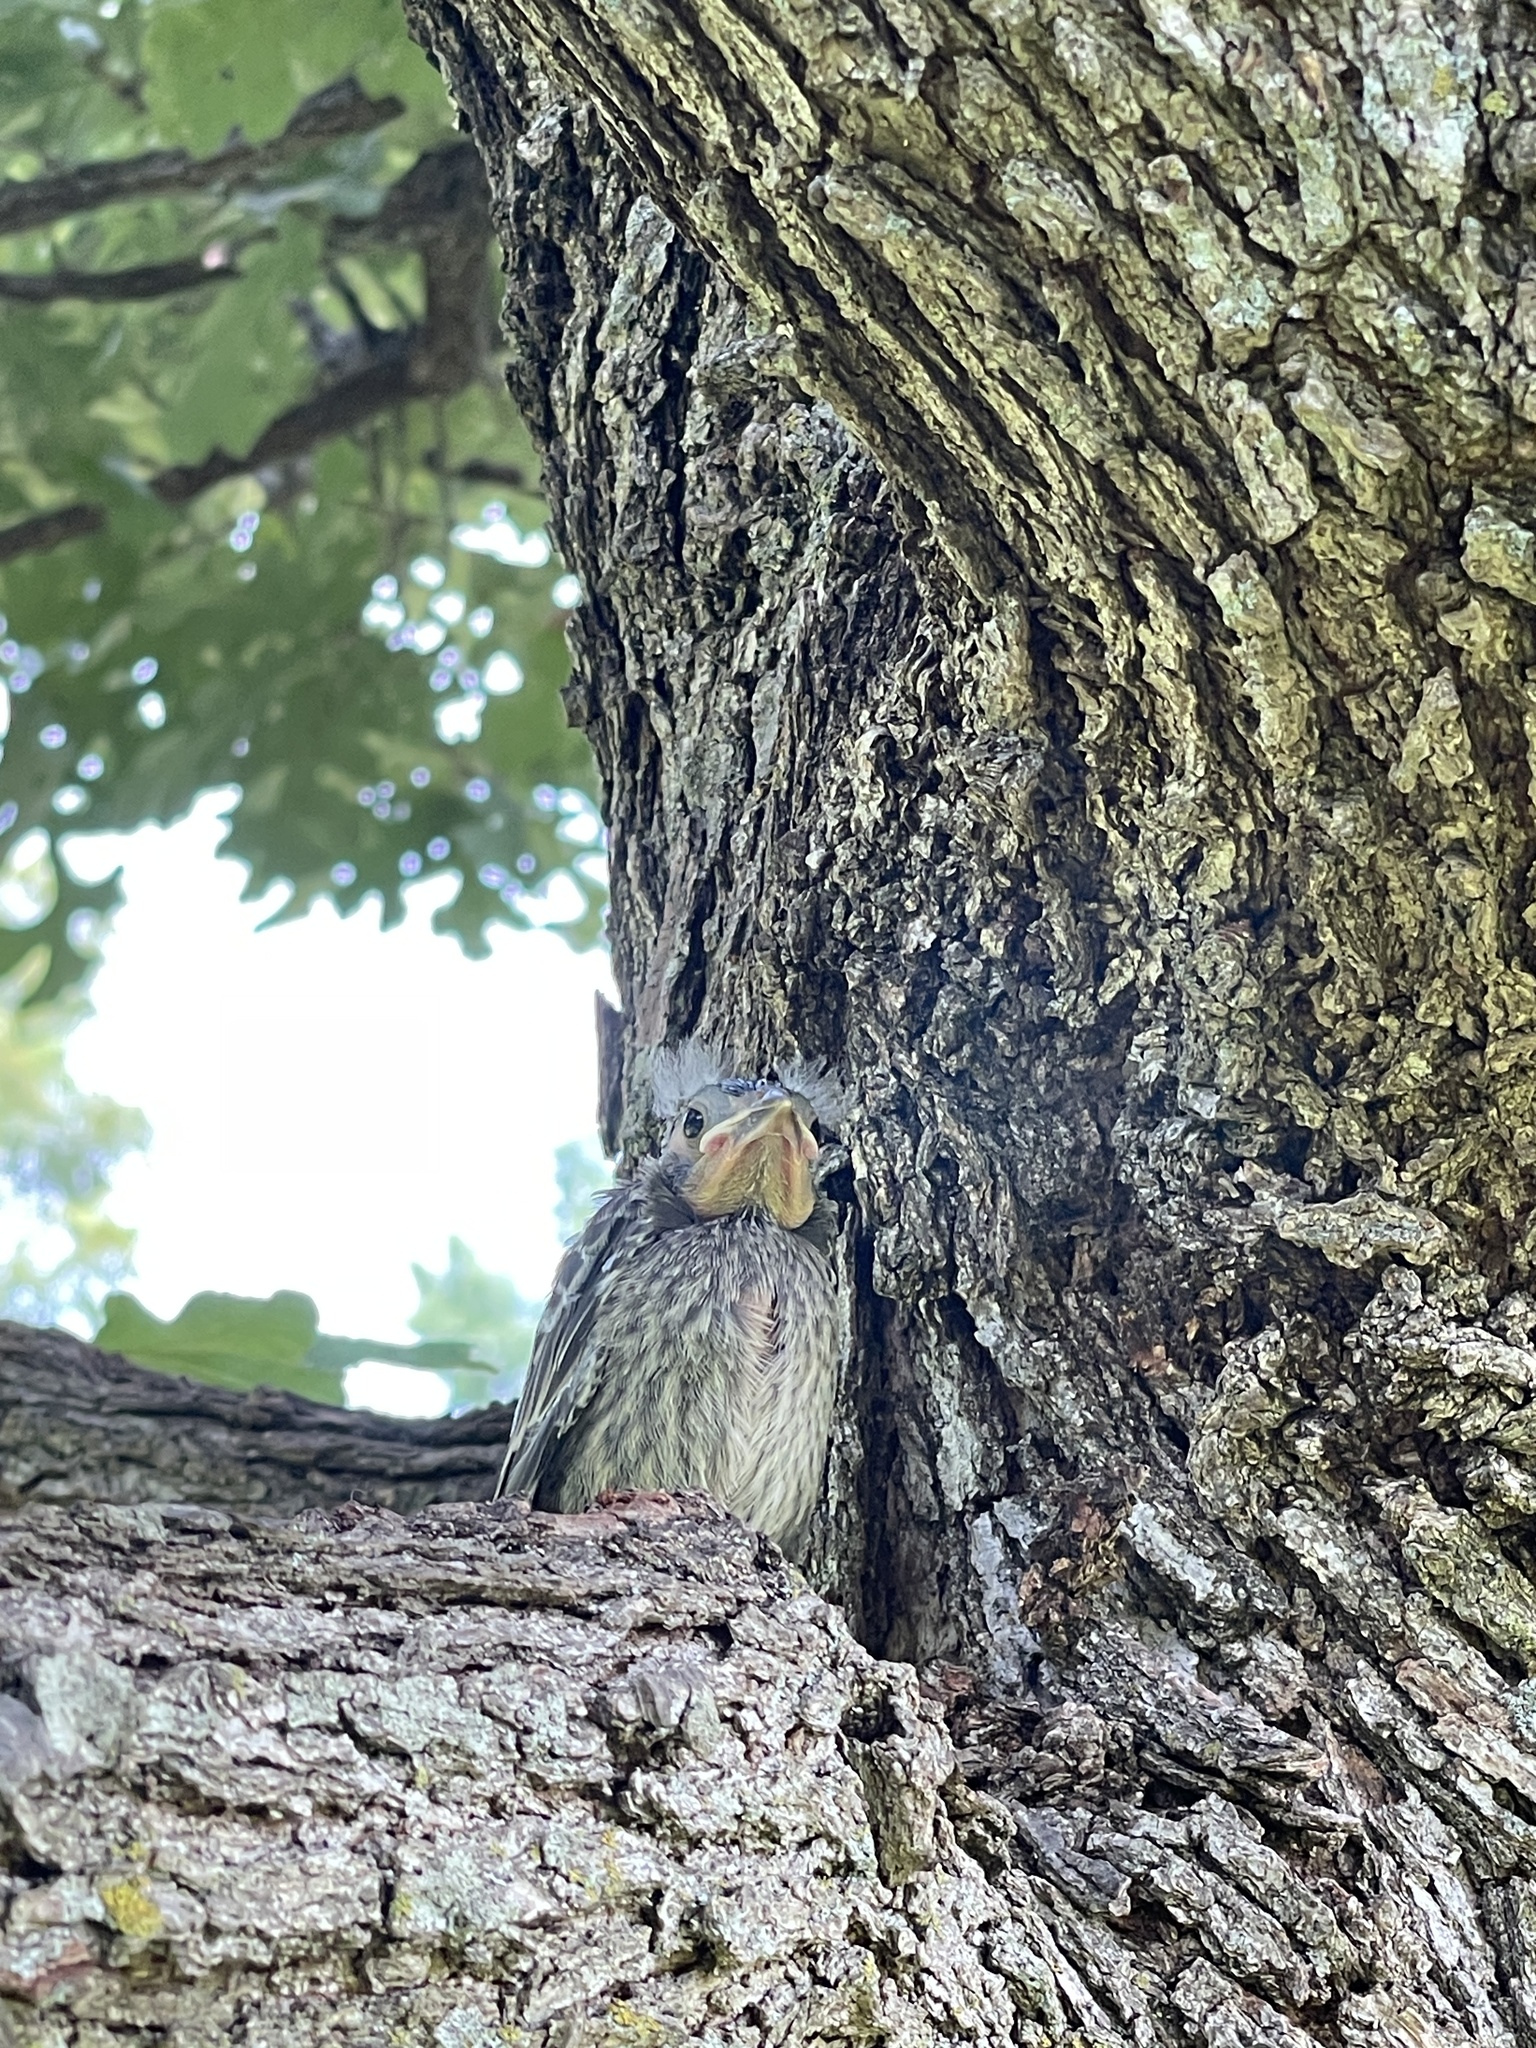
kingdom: Animalia
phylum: Chordata
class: Aves
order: Passeriformes
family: Cardinalidae
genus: Cardinalis
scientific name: Cardinalis cardinalis
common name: Northern cardinal
